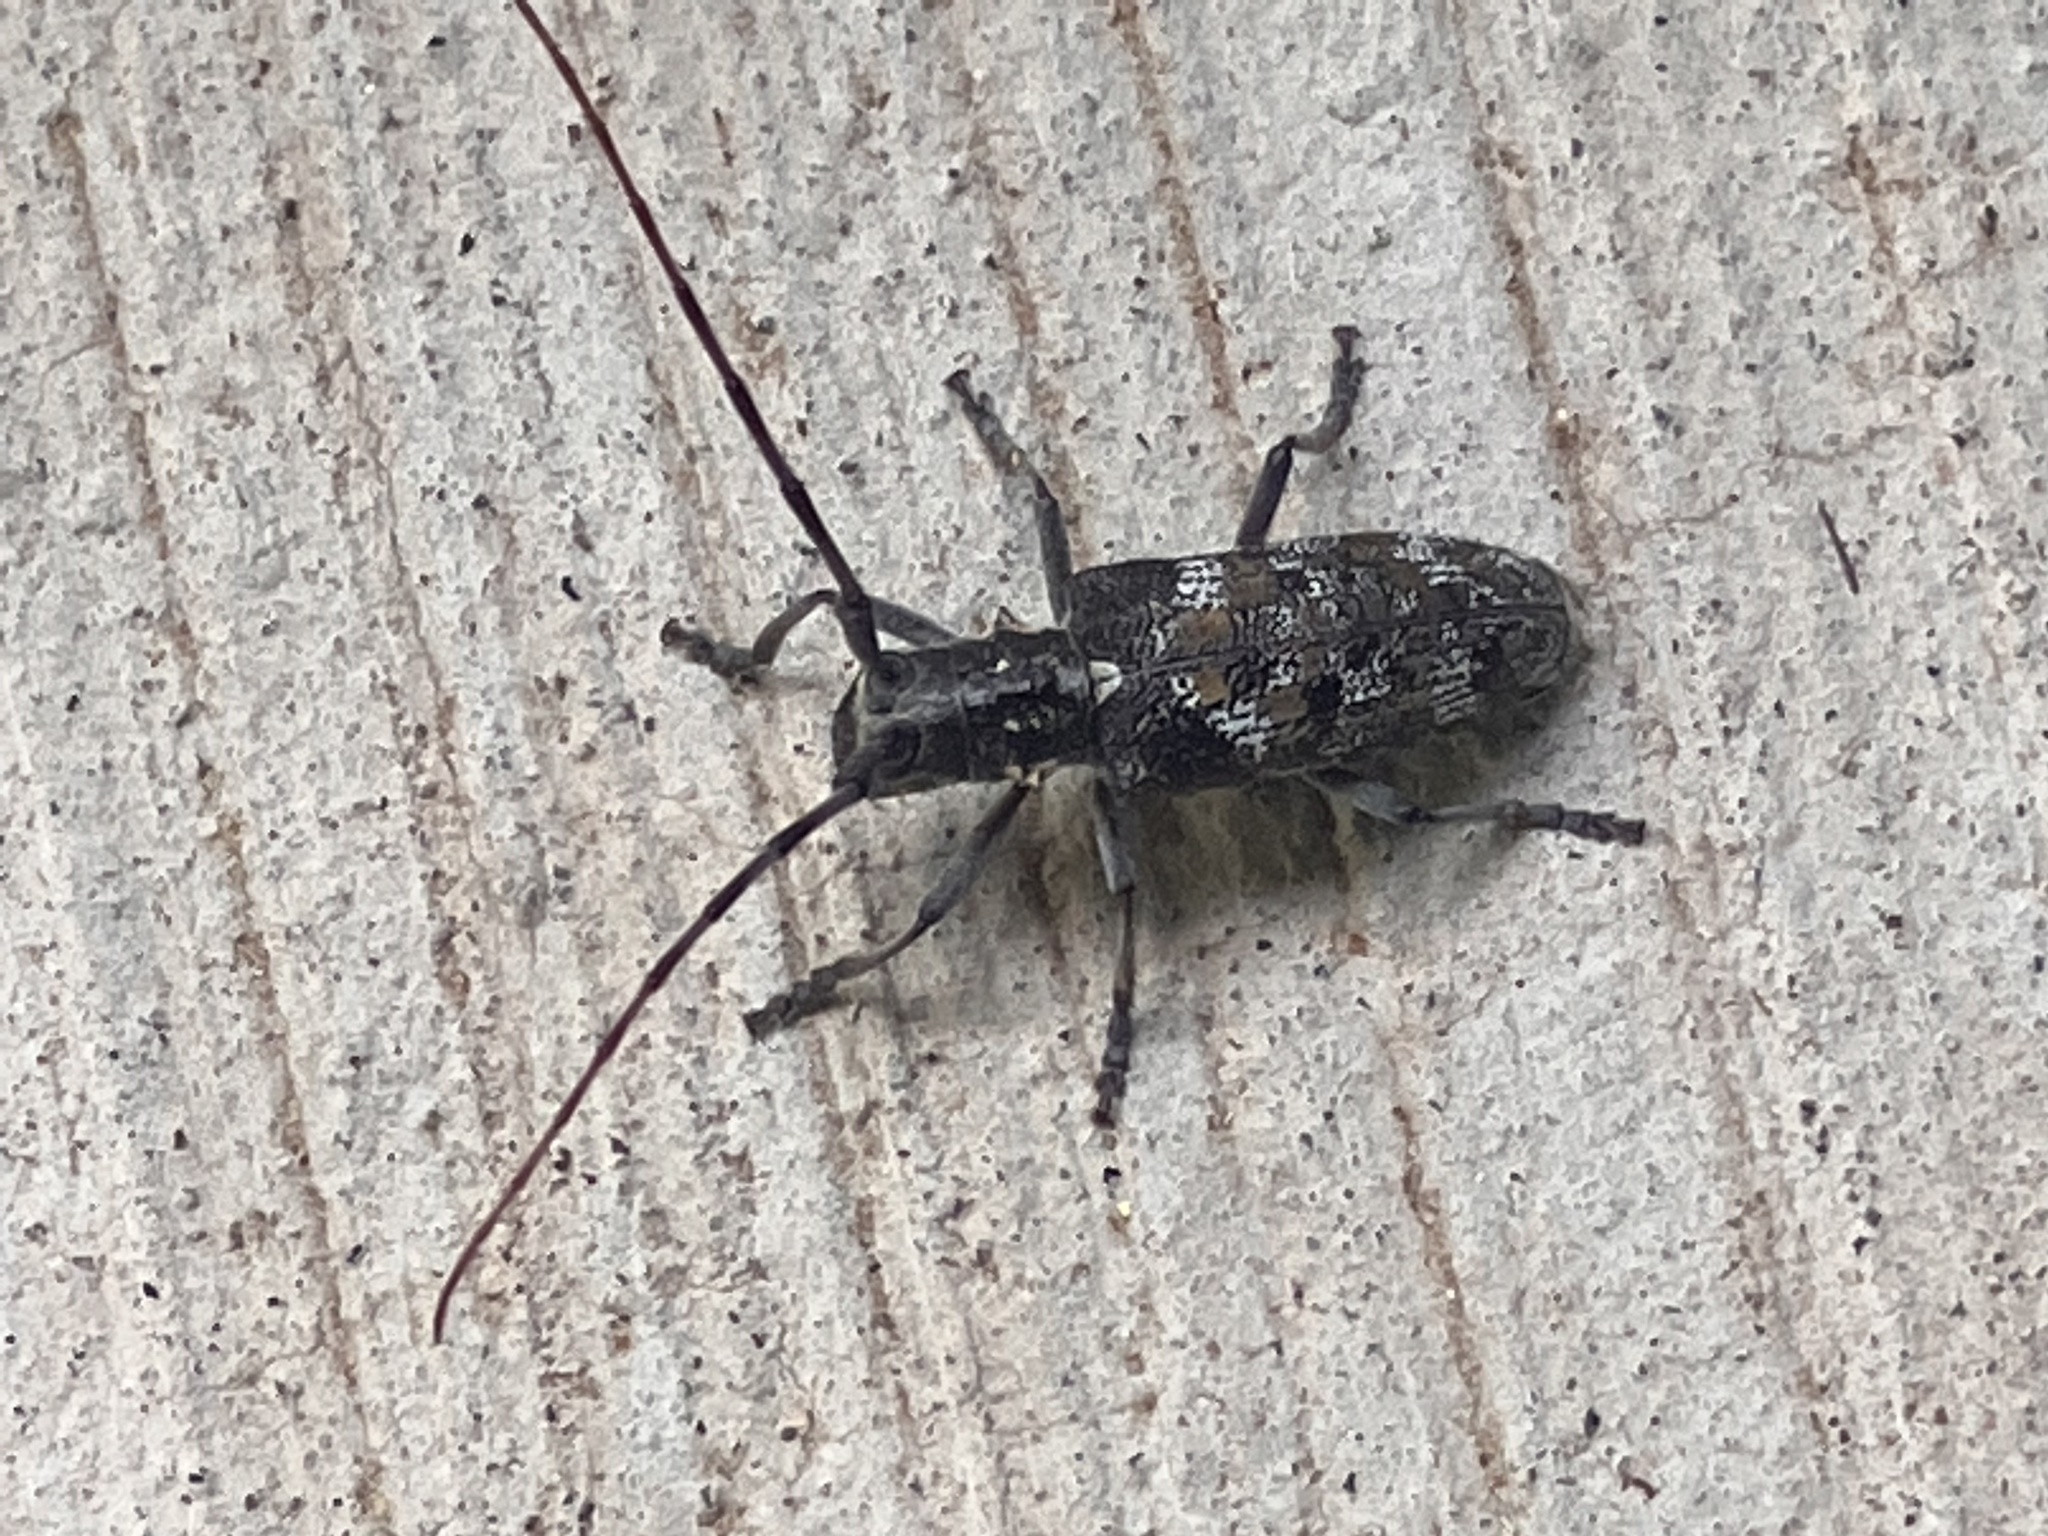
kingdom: Animalia
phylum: Arthropoda
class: Insecta
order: Coleoptera
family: Cerambycidae
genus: Monochamus
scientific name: Monochamus clamator
